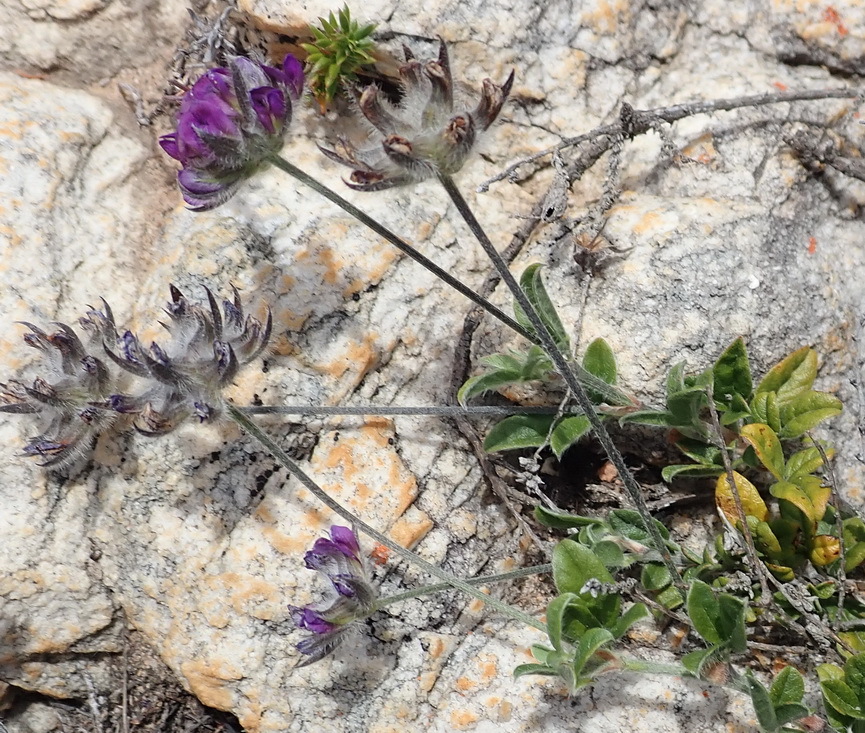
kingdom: Plantae
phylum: Tracheophyta
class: Magnoliopsida
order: Fabales
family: Fabaceae
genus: Psoralea
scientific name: Psoralea swartbergensis
